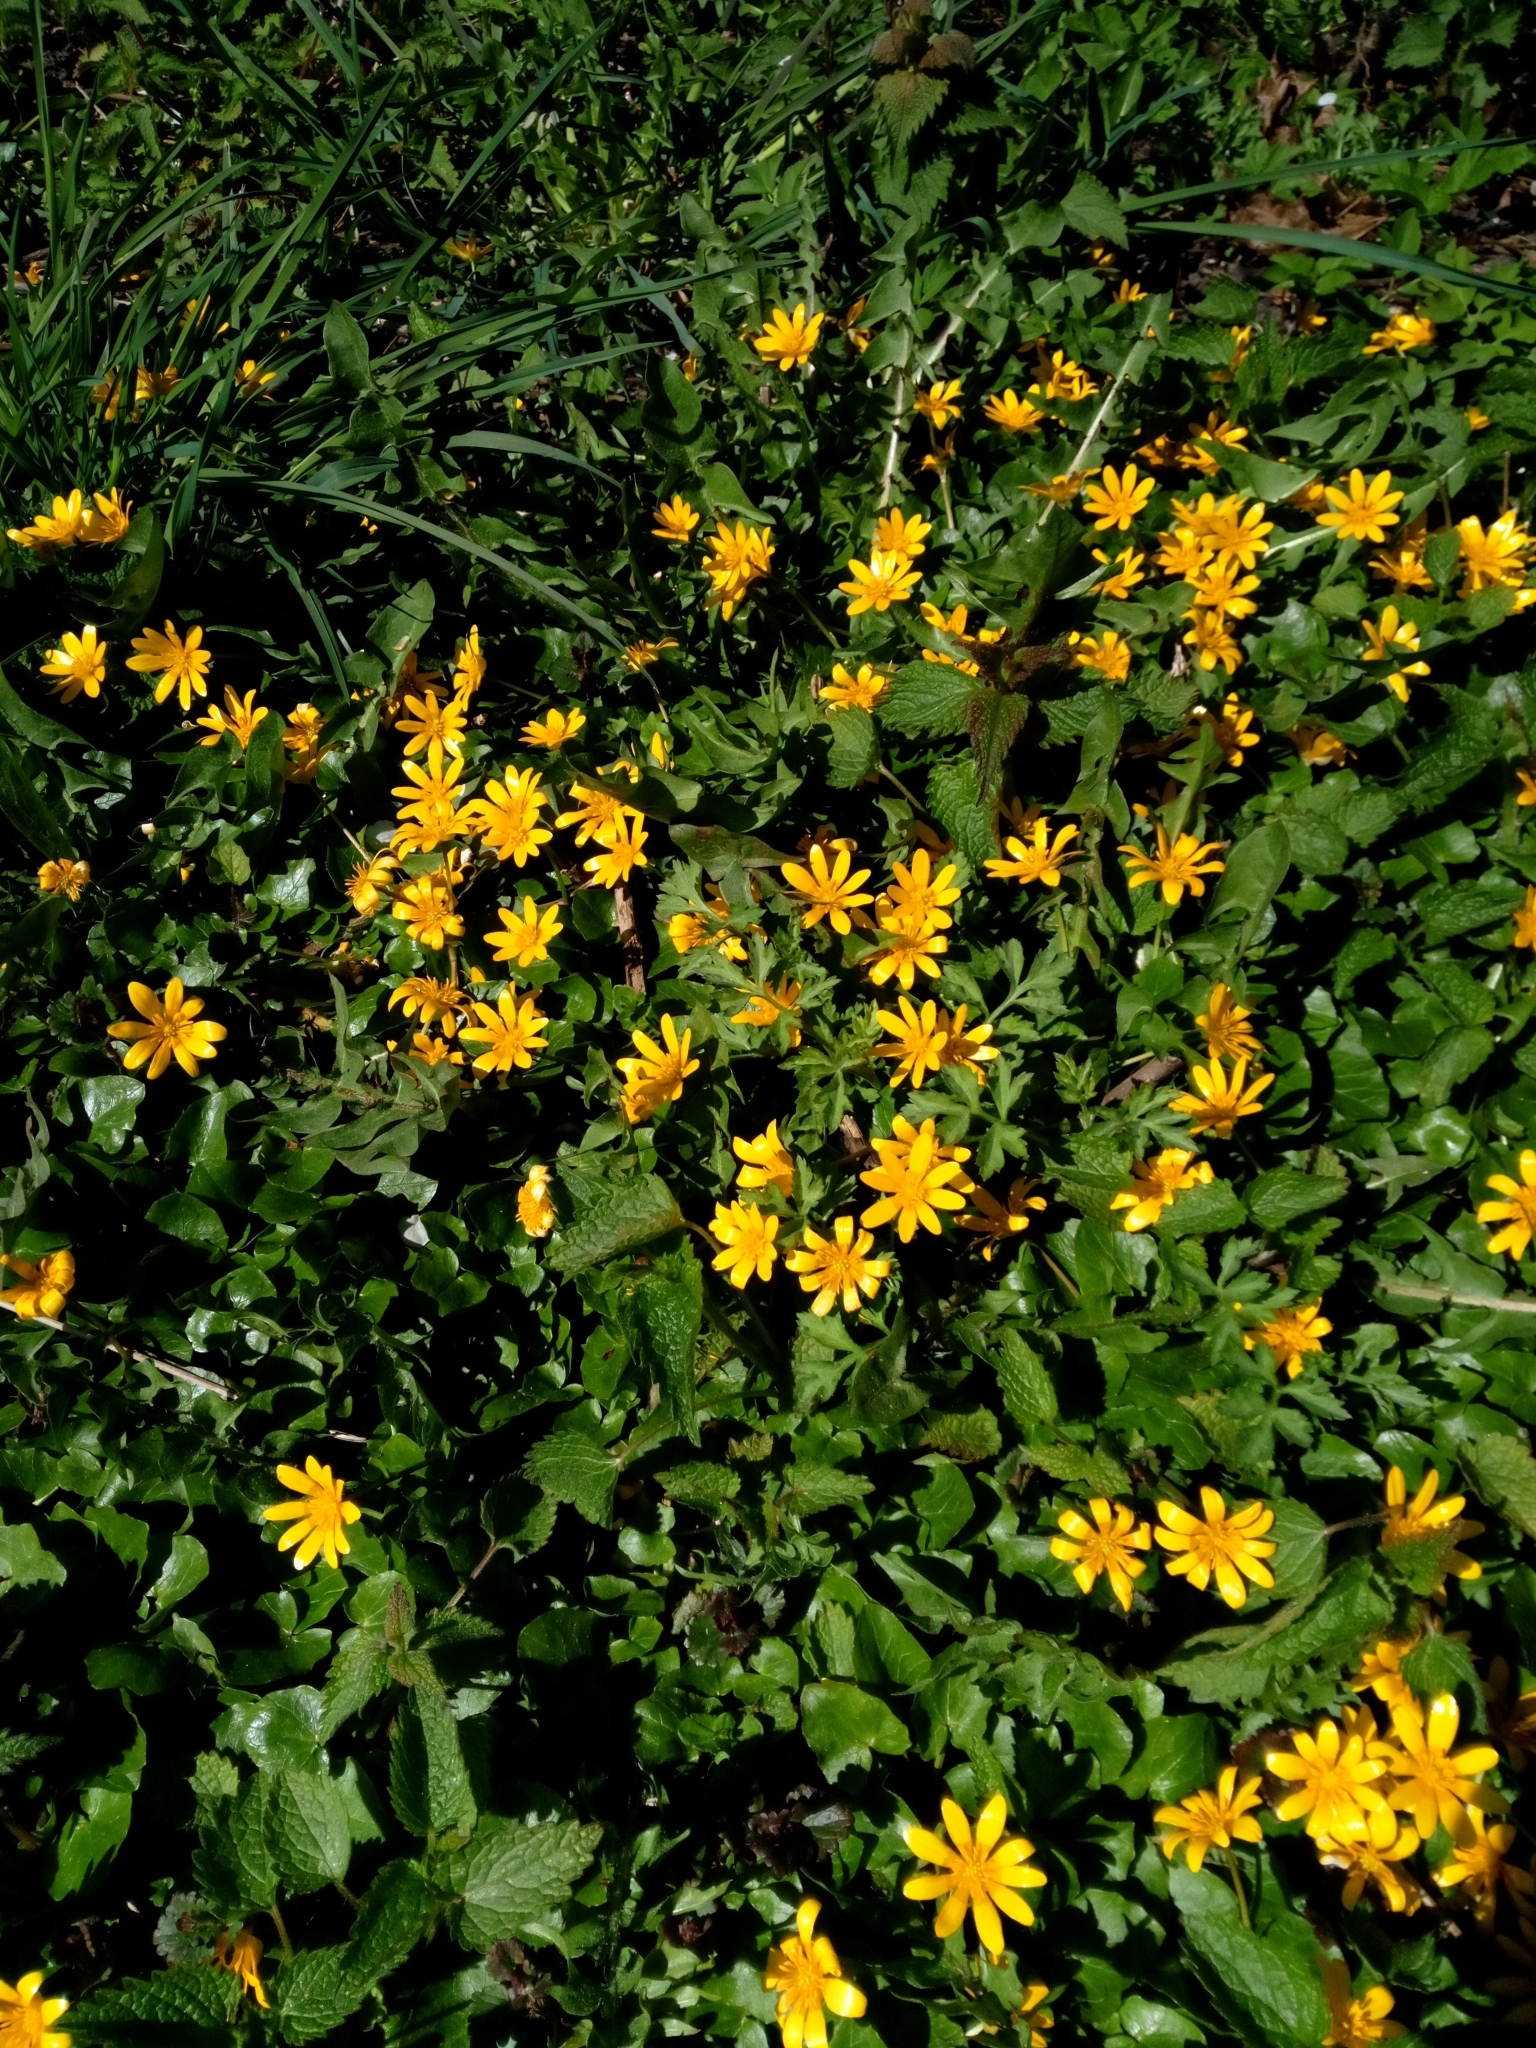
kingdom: Plantae
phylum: Tracheophyta
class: Magnoliopsida
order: Ranunculales
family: Ranunculaceae
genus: Ficaria
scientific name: Ficaria verna
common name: Lesser celandine
